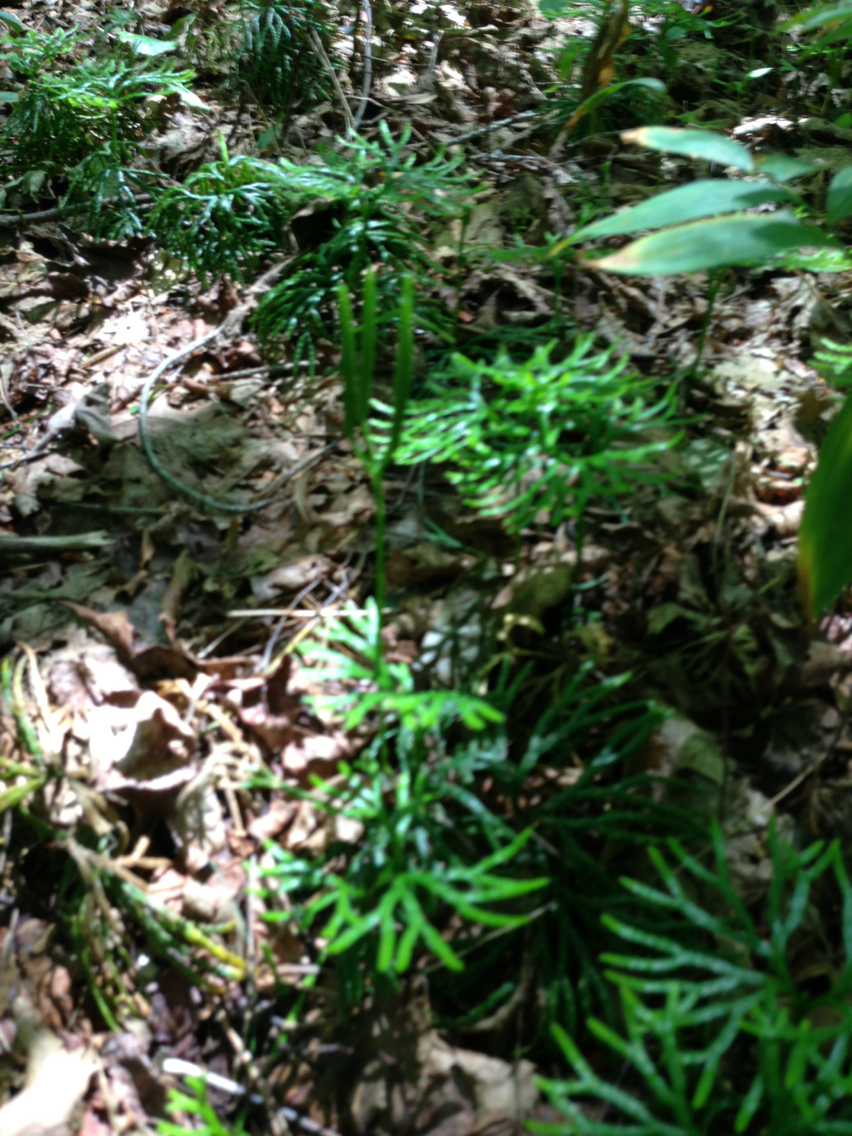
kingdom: Plantae
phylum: Tracheophyta
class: Lycopodiopsida
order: Lycopodiales
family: Lycopodiaceae
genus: Diphasiastrum
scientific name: Diphasiastrum digitatum
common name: Southern running-pine
